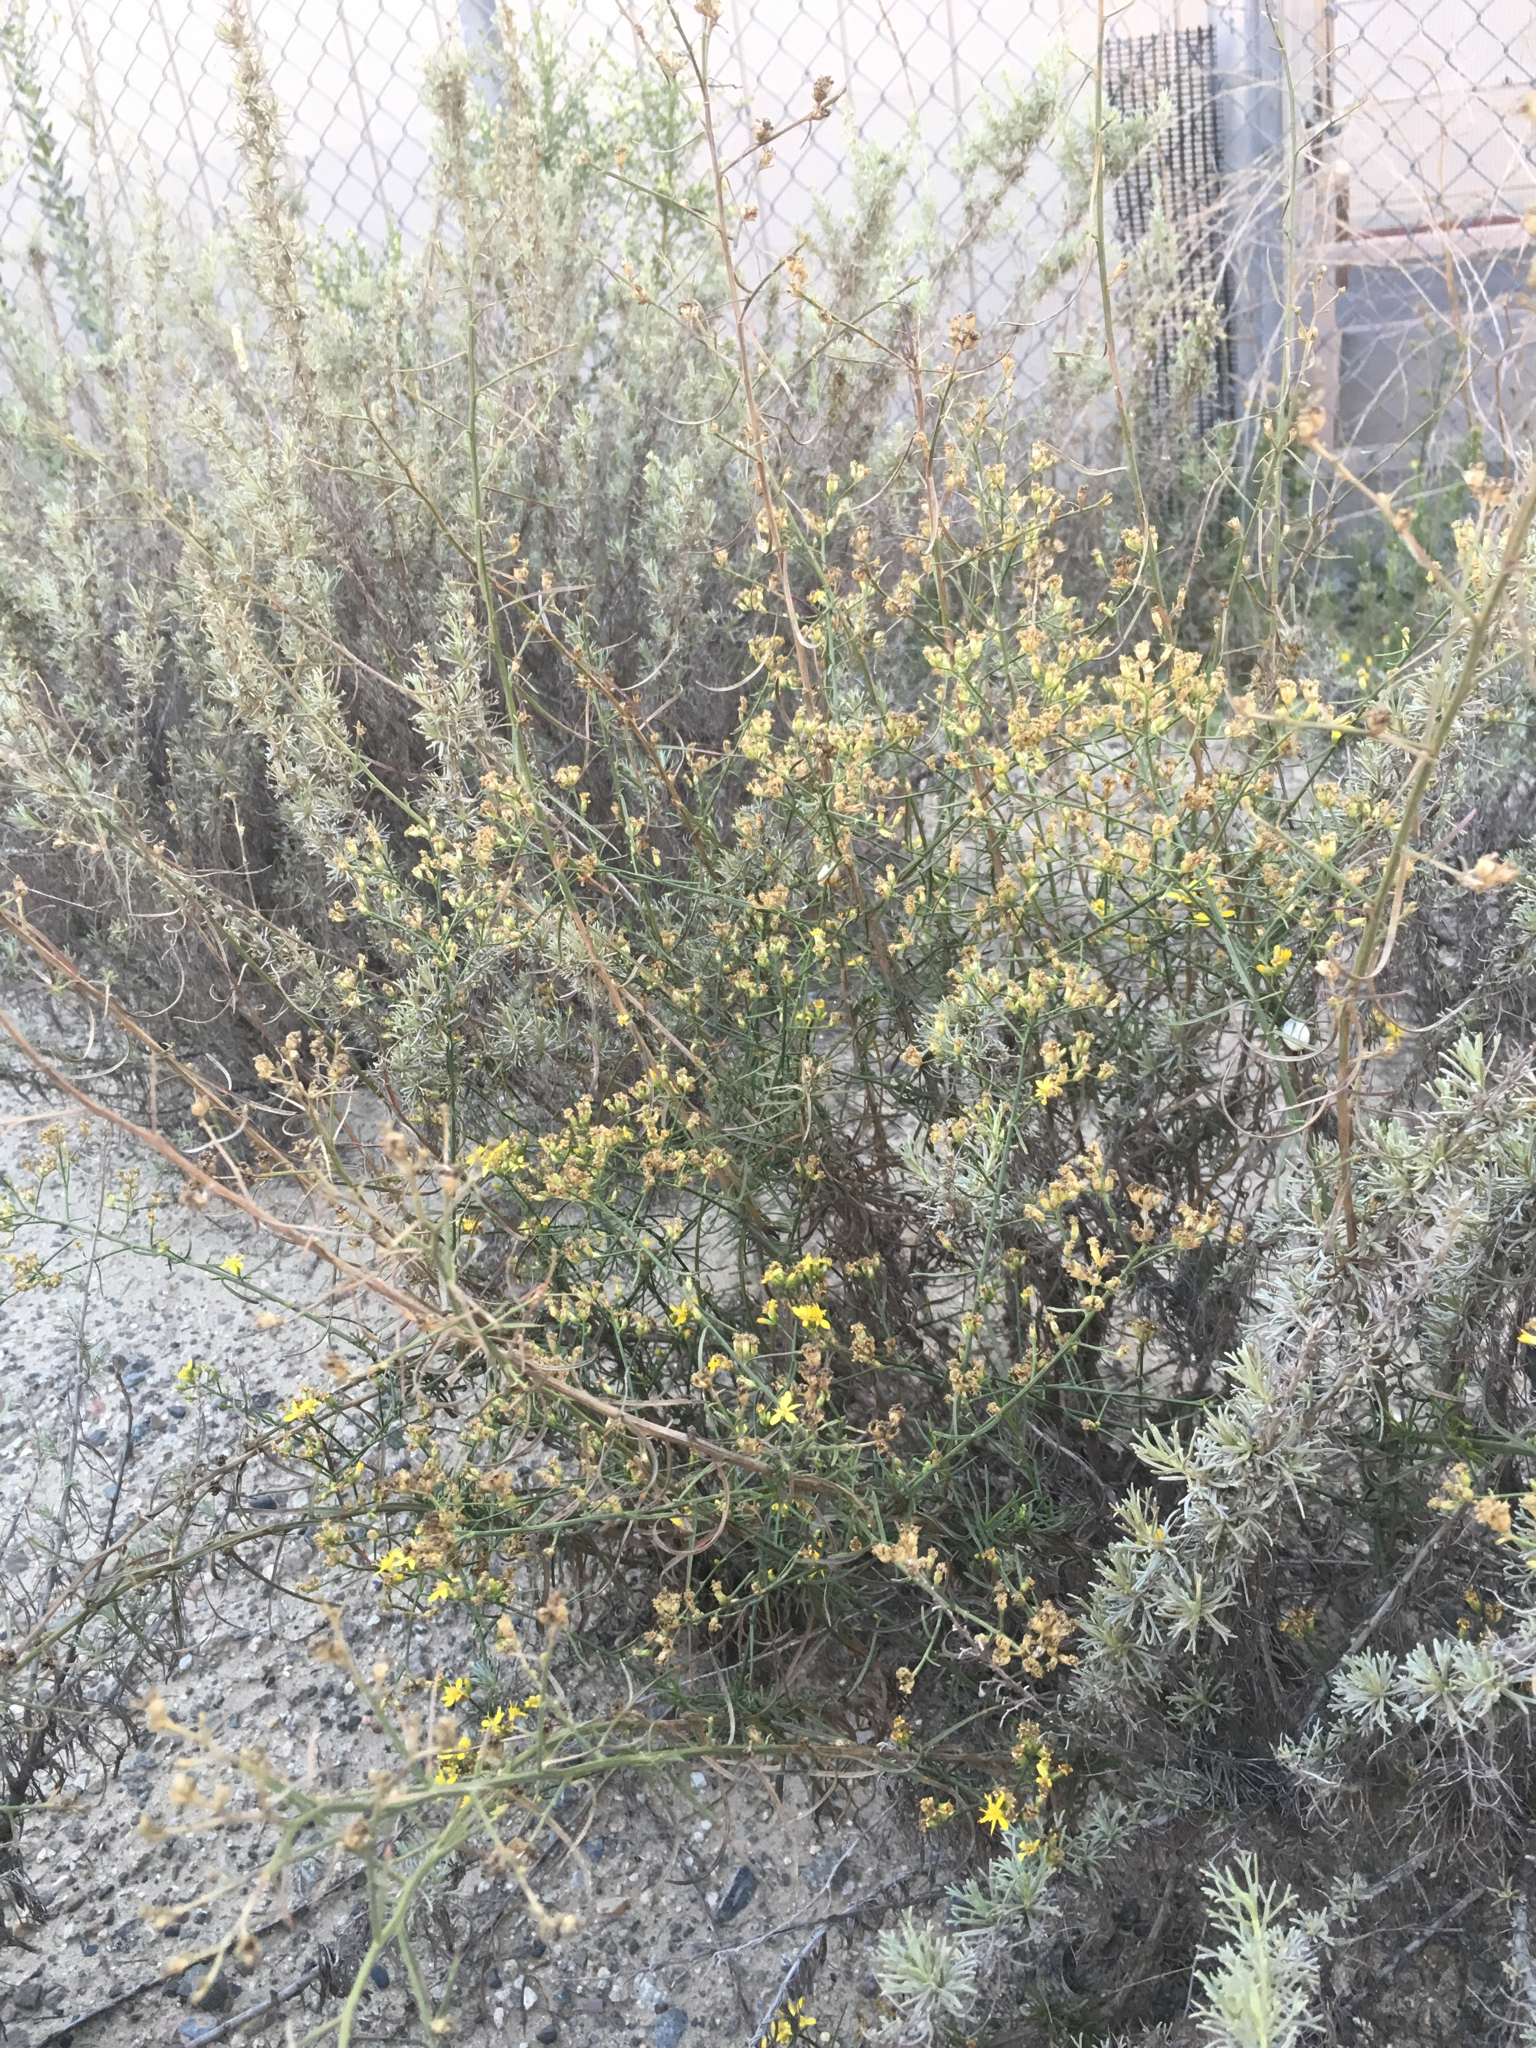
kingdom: Plantae
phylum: Tracheophyta
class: Magnoliopsida
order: Asterales
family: Asteraceae
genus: Gutierrezia
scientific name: Gutierrezia californica
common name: California matchweed
